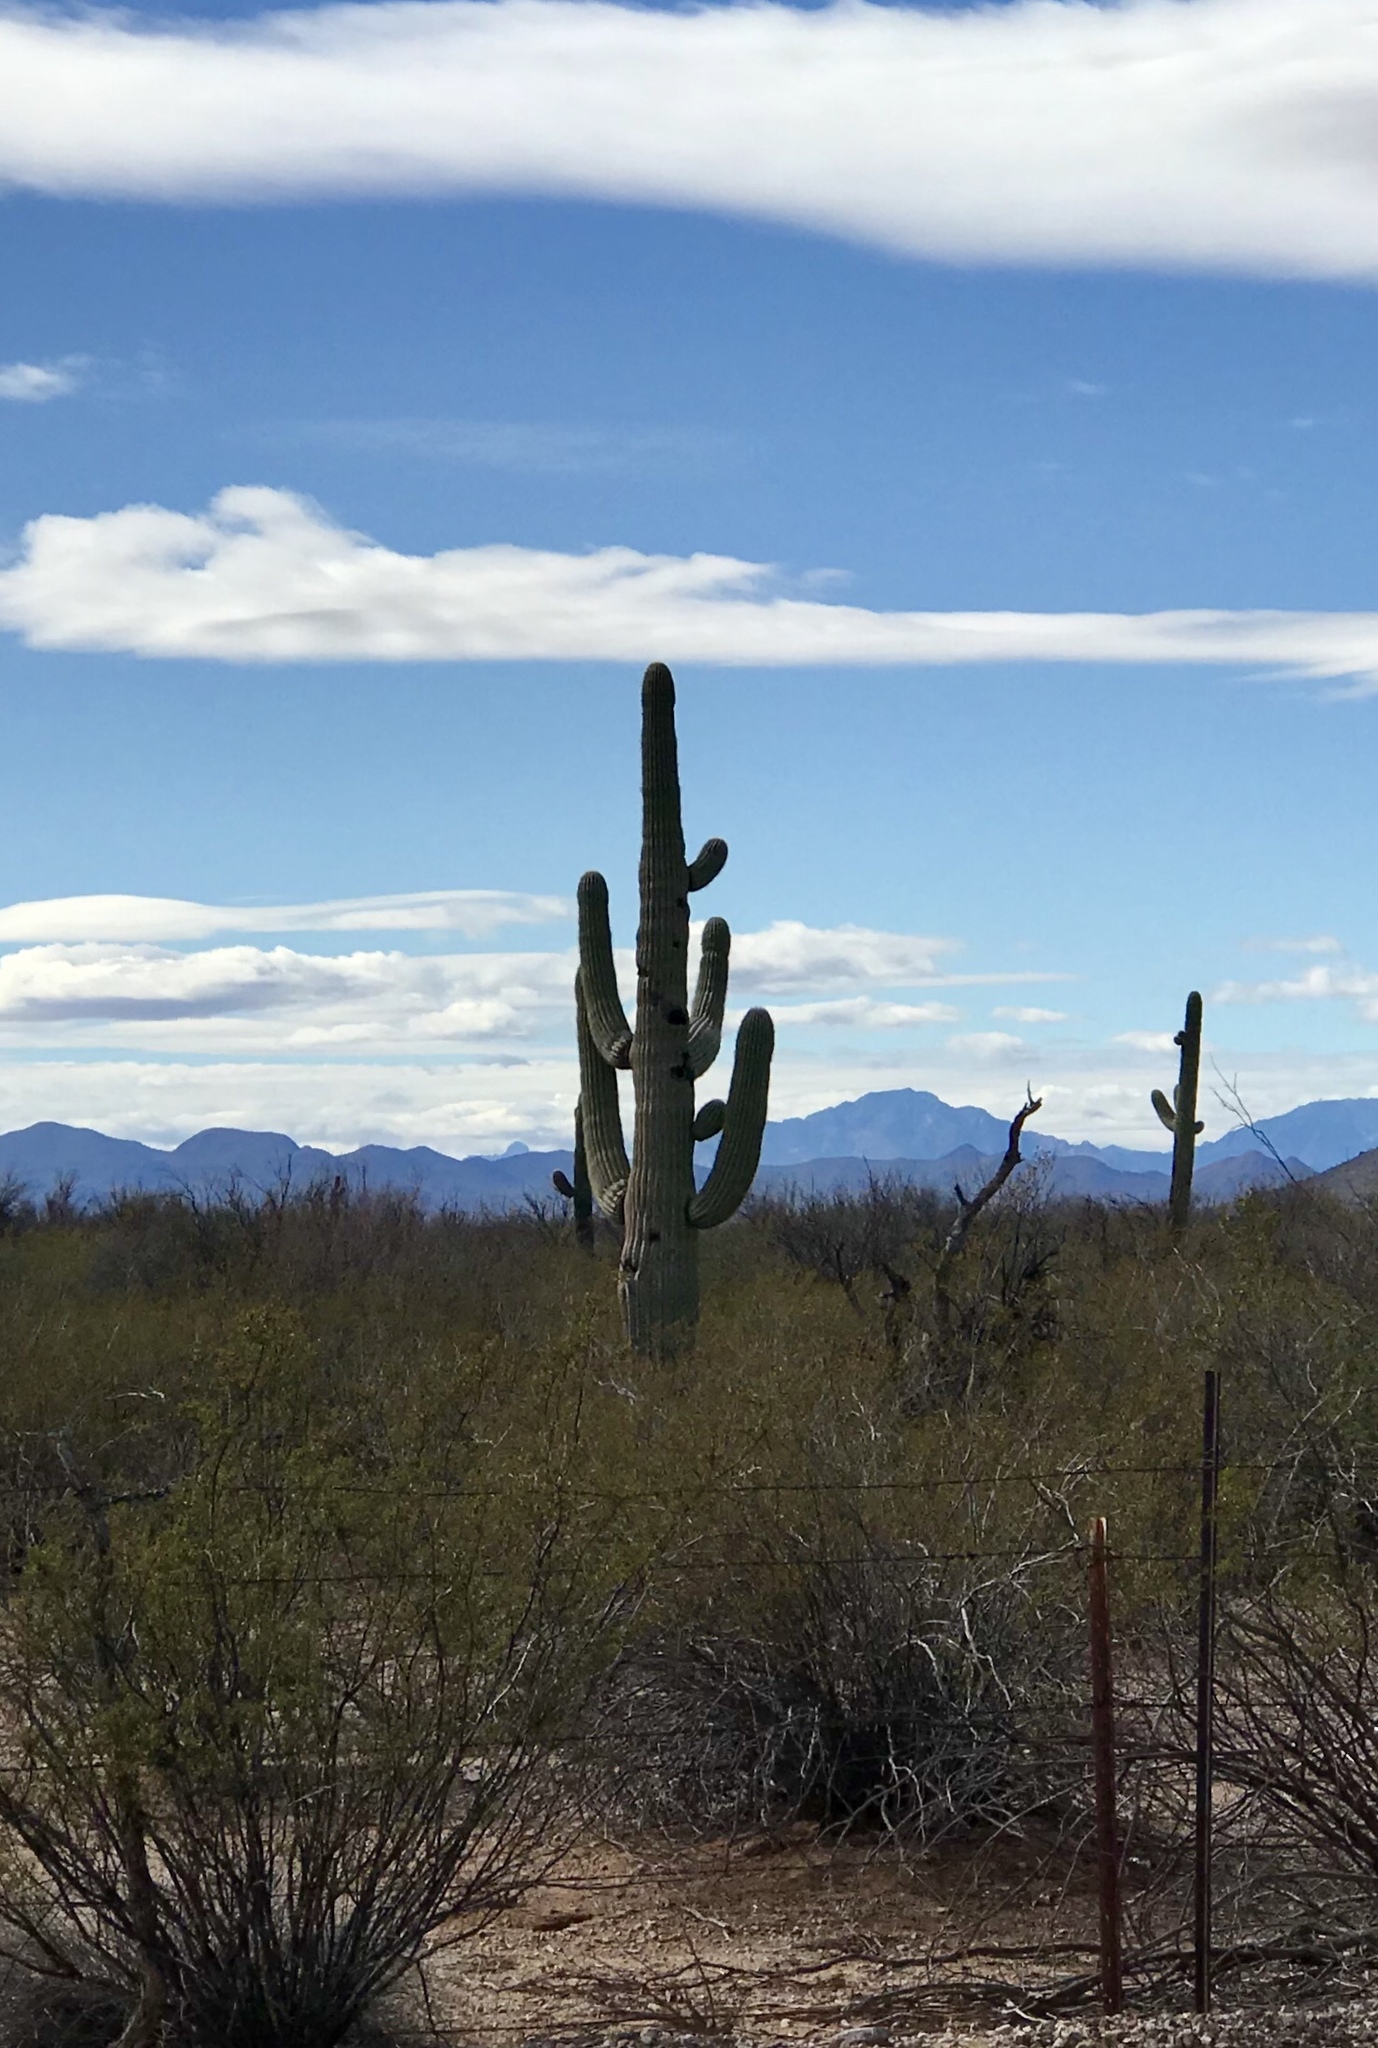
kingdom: Plantae
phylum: Tracheophyta
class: Magnoliopsida
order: Caryophyllales
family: Cactaceae
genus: Carnegiea
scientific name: Carnegiea gigantea
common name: Saguaro
